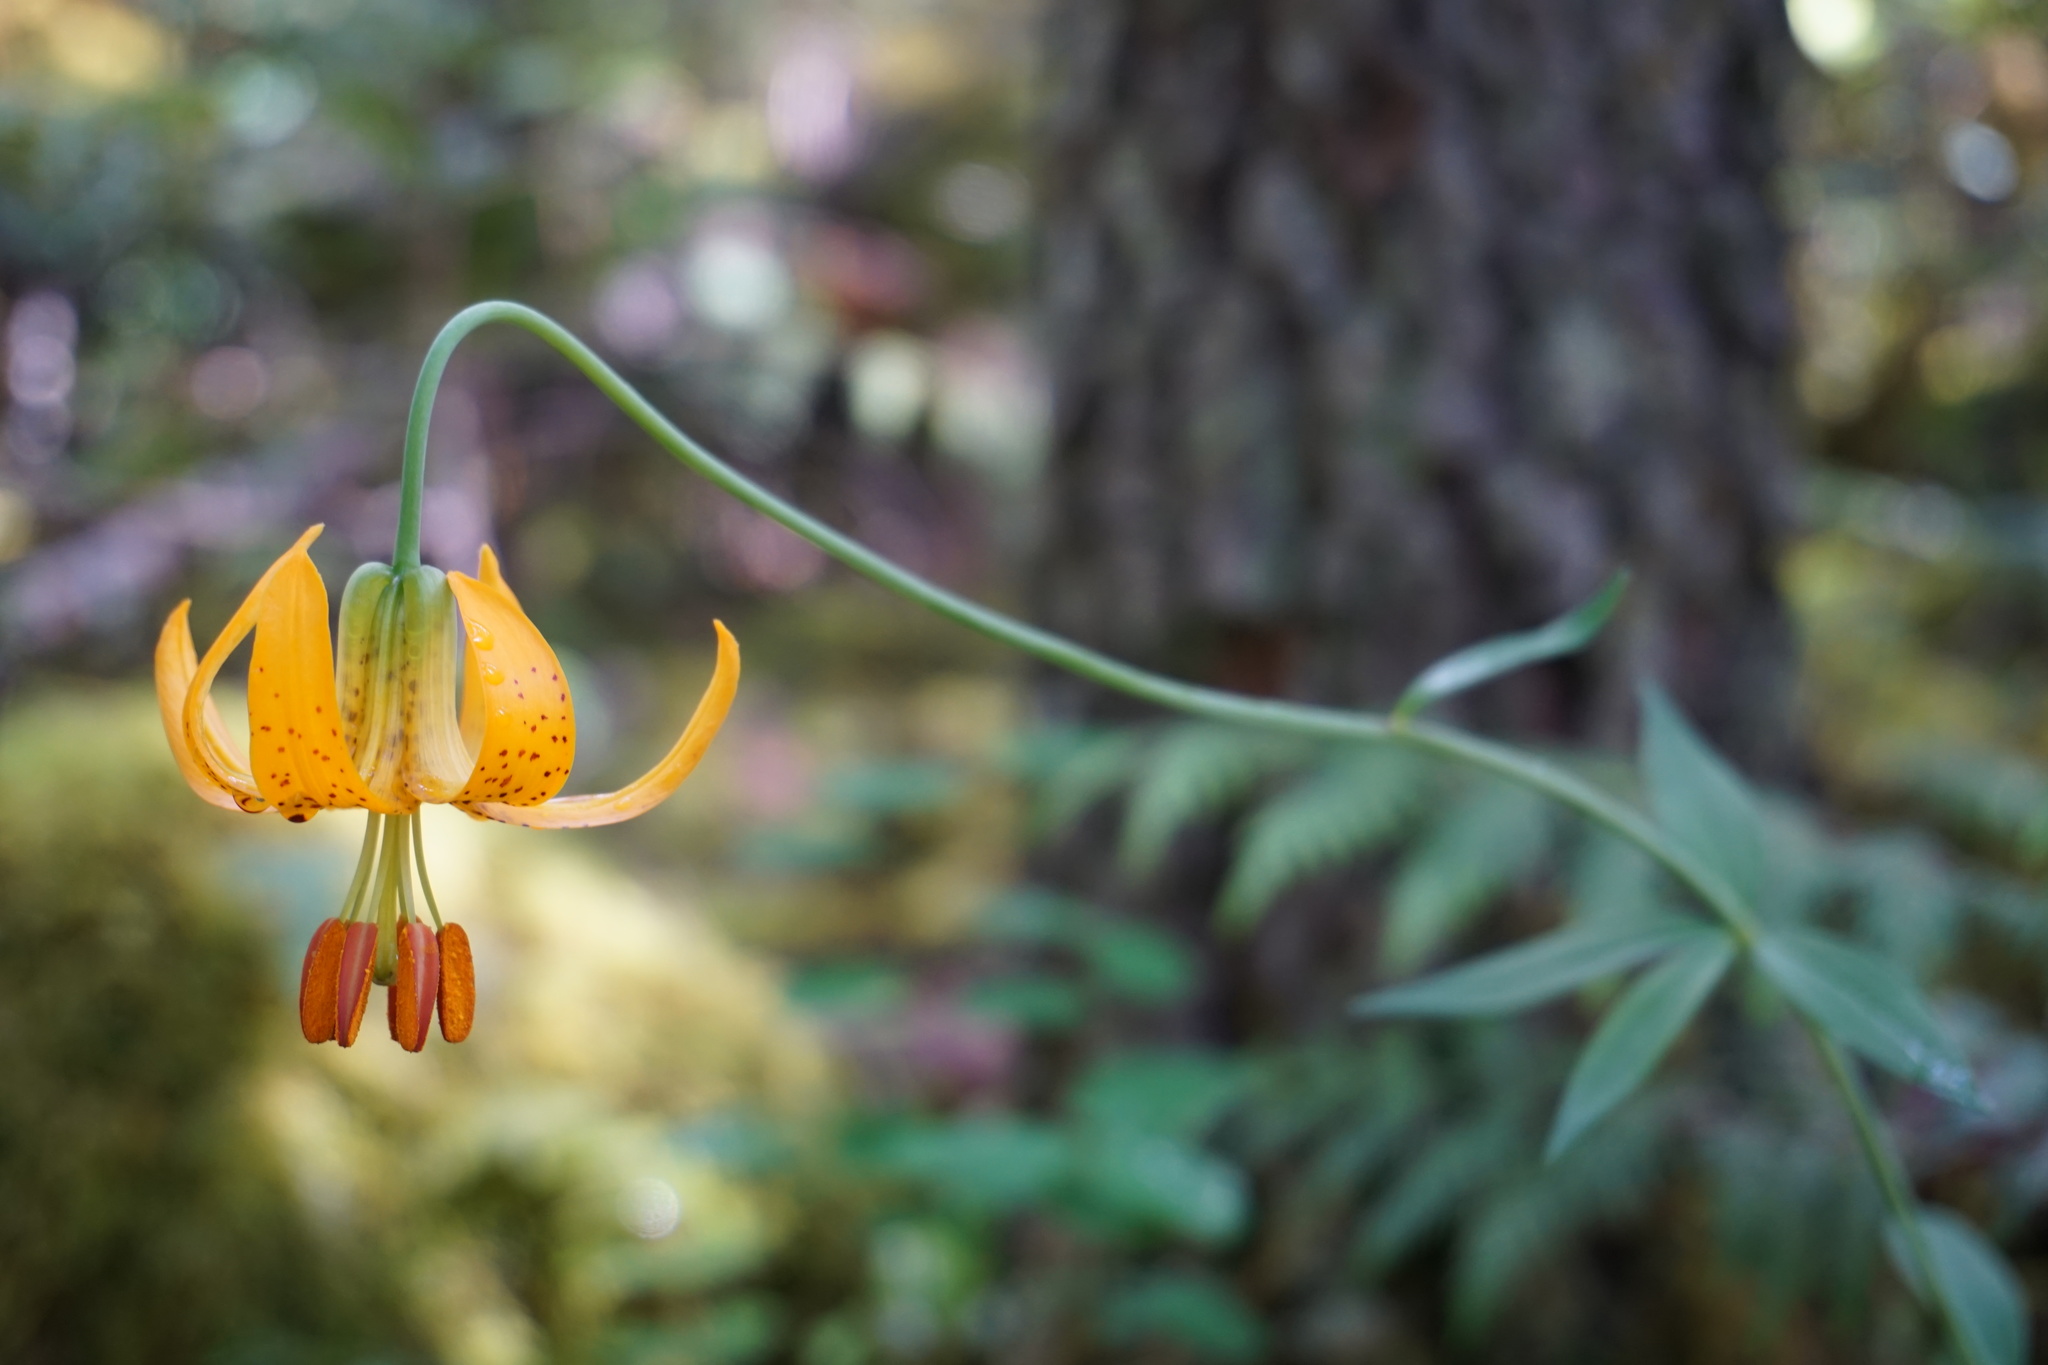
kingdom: Plantae
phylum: Tracheophyta
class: Liliopsida
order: Liliales
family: Liliaceae
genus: Lilium
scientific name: Lilium columbianum
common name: Columbia lily
